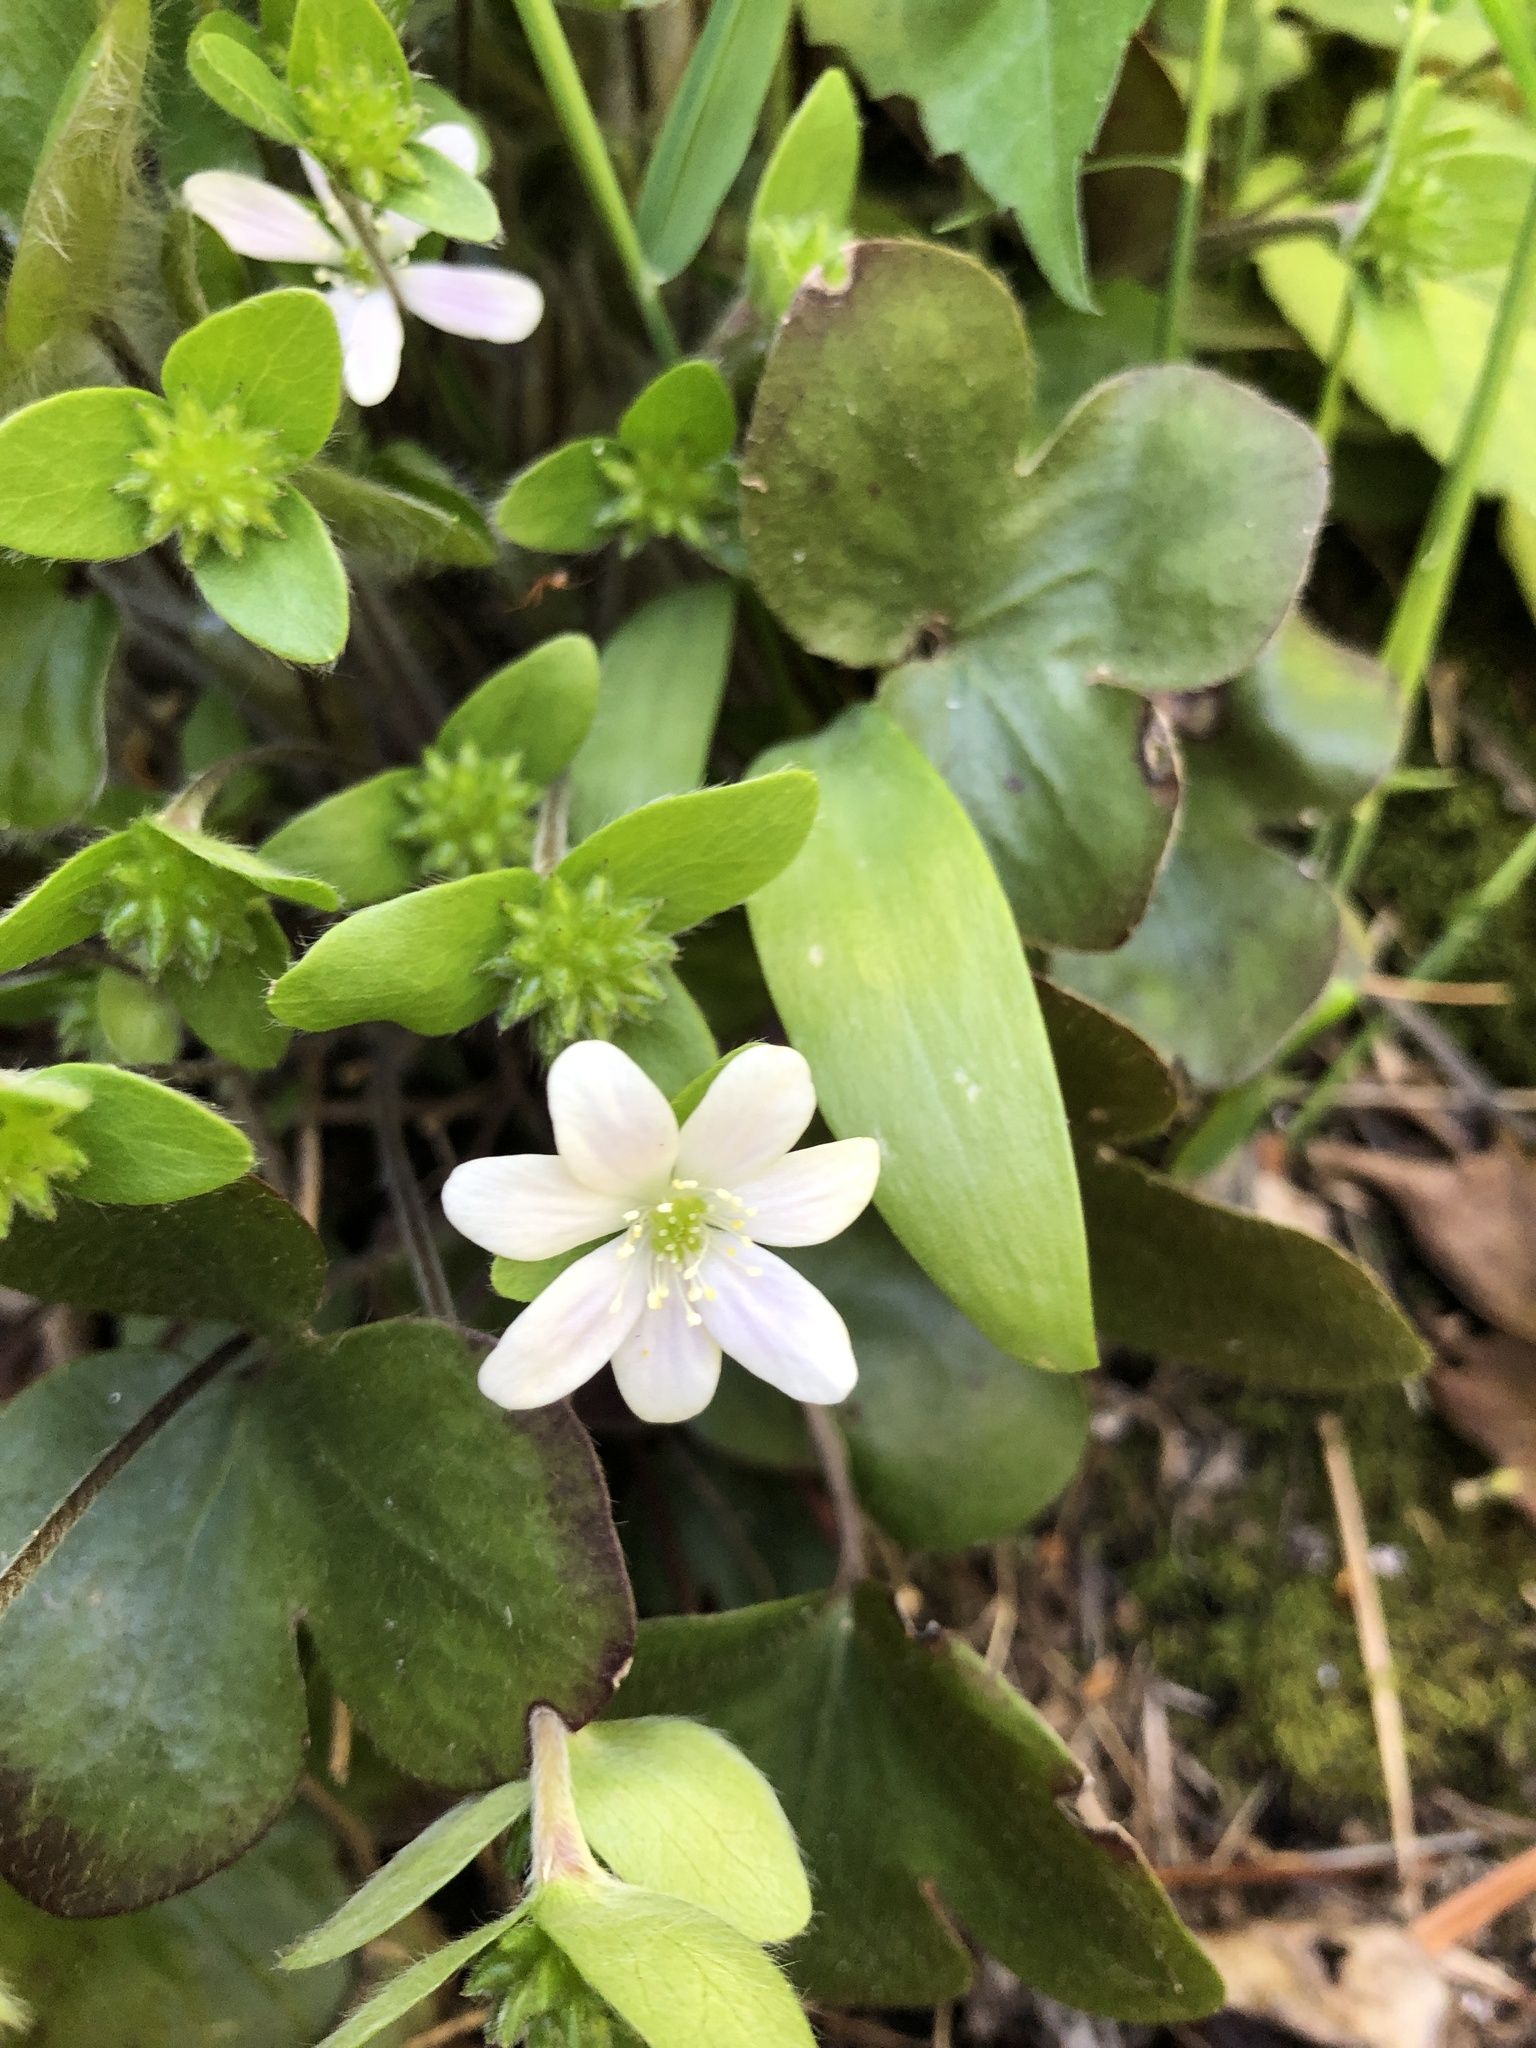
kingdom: Plantae
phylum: Tracheophyta
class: Magnoliopsida
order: Ranunculales
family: Ranunculaceae
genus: Hepatica
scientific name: Hepatica americana
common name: American hepatica
